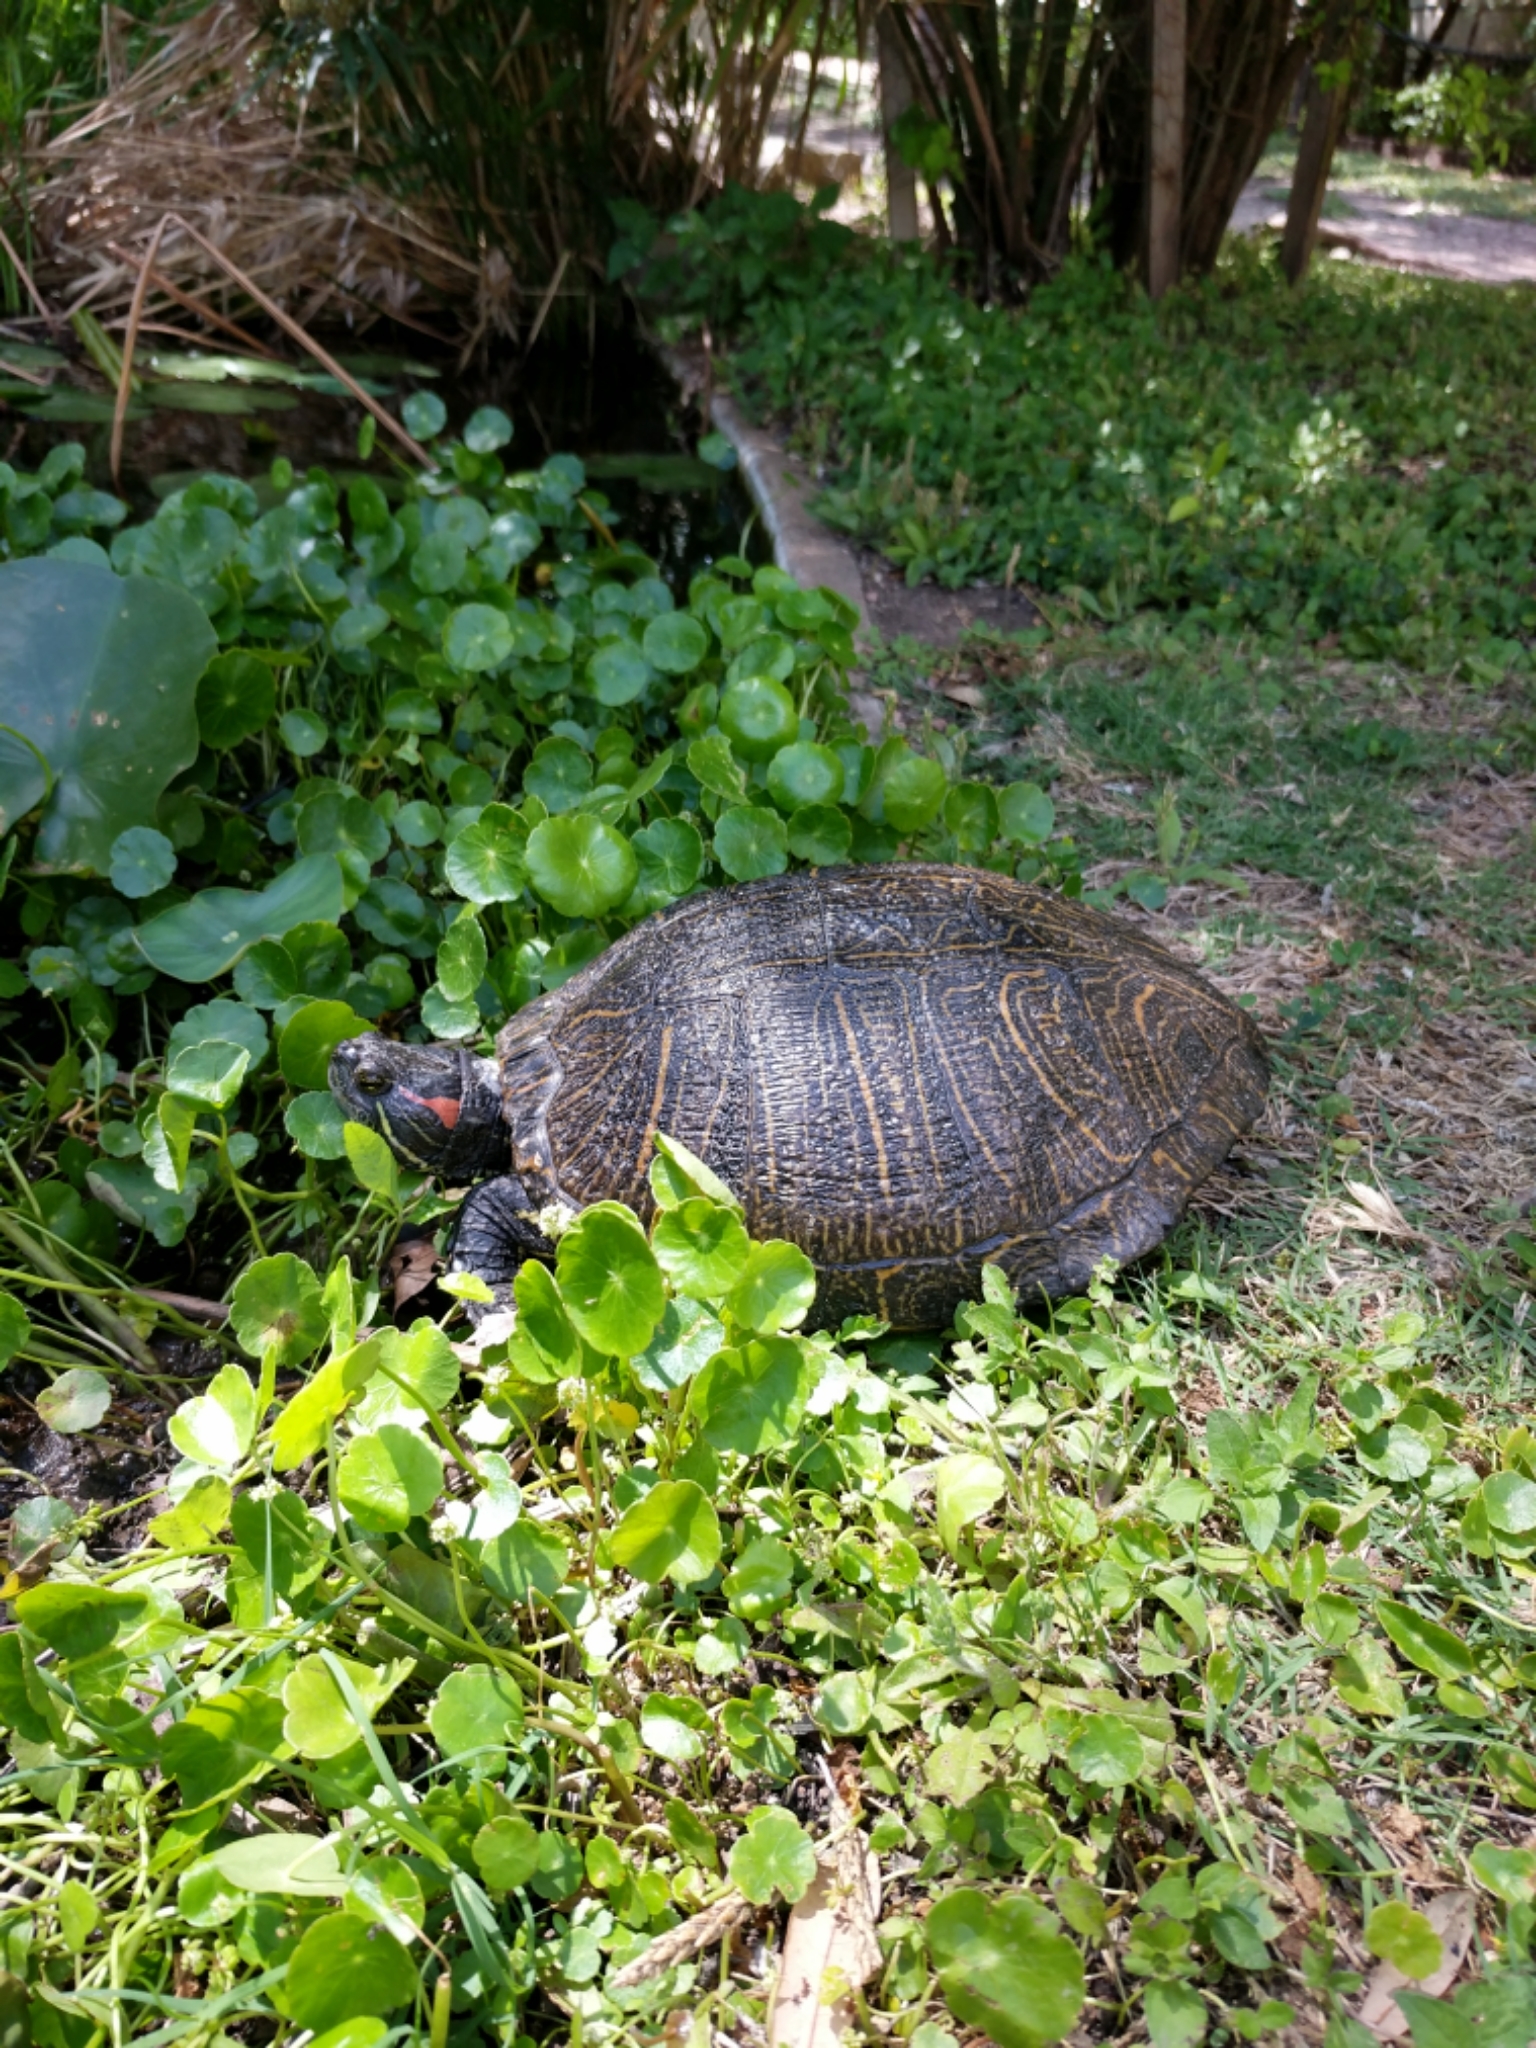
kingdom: Animalia
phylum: Chordata
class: Testudines
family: Emydidae
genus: Trachemys
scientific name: Trachemys scripta
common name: Slider
